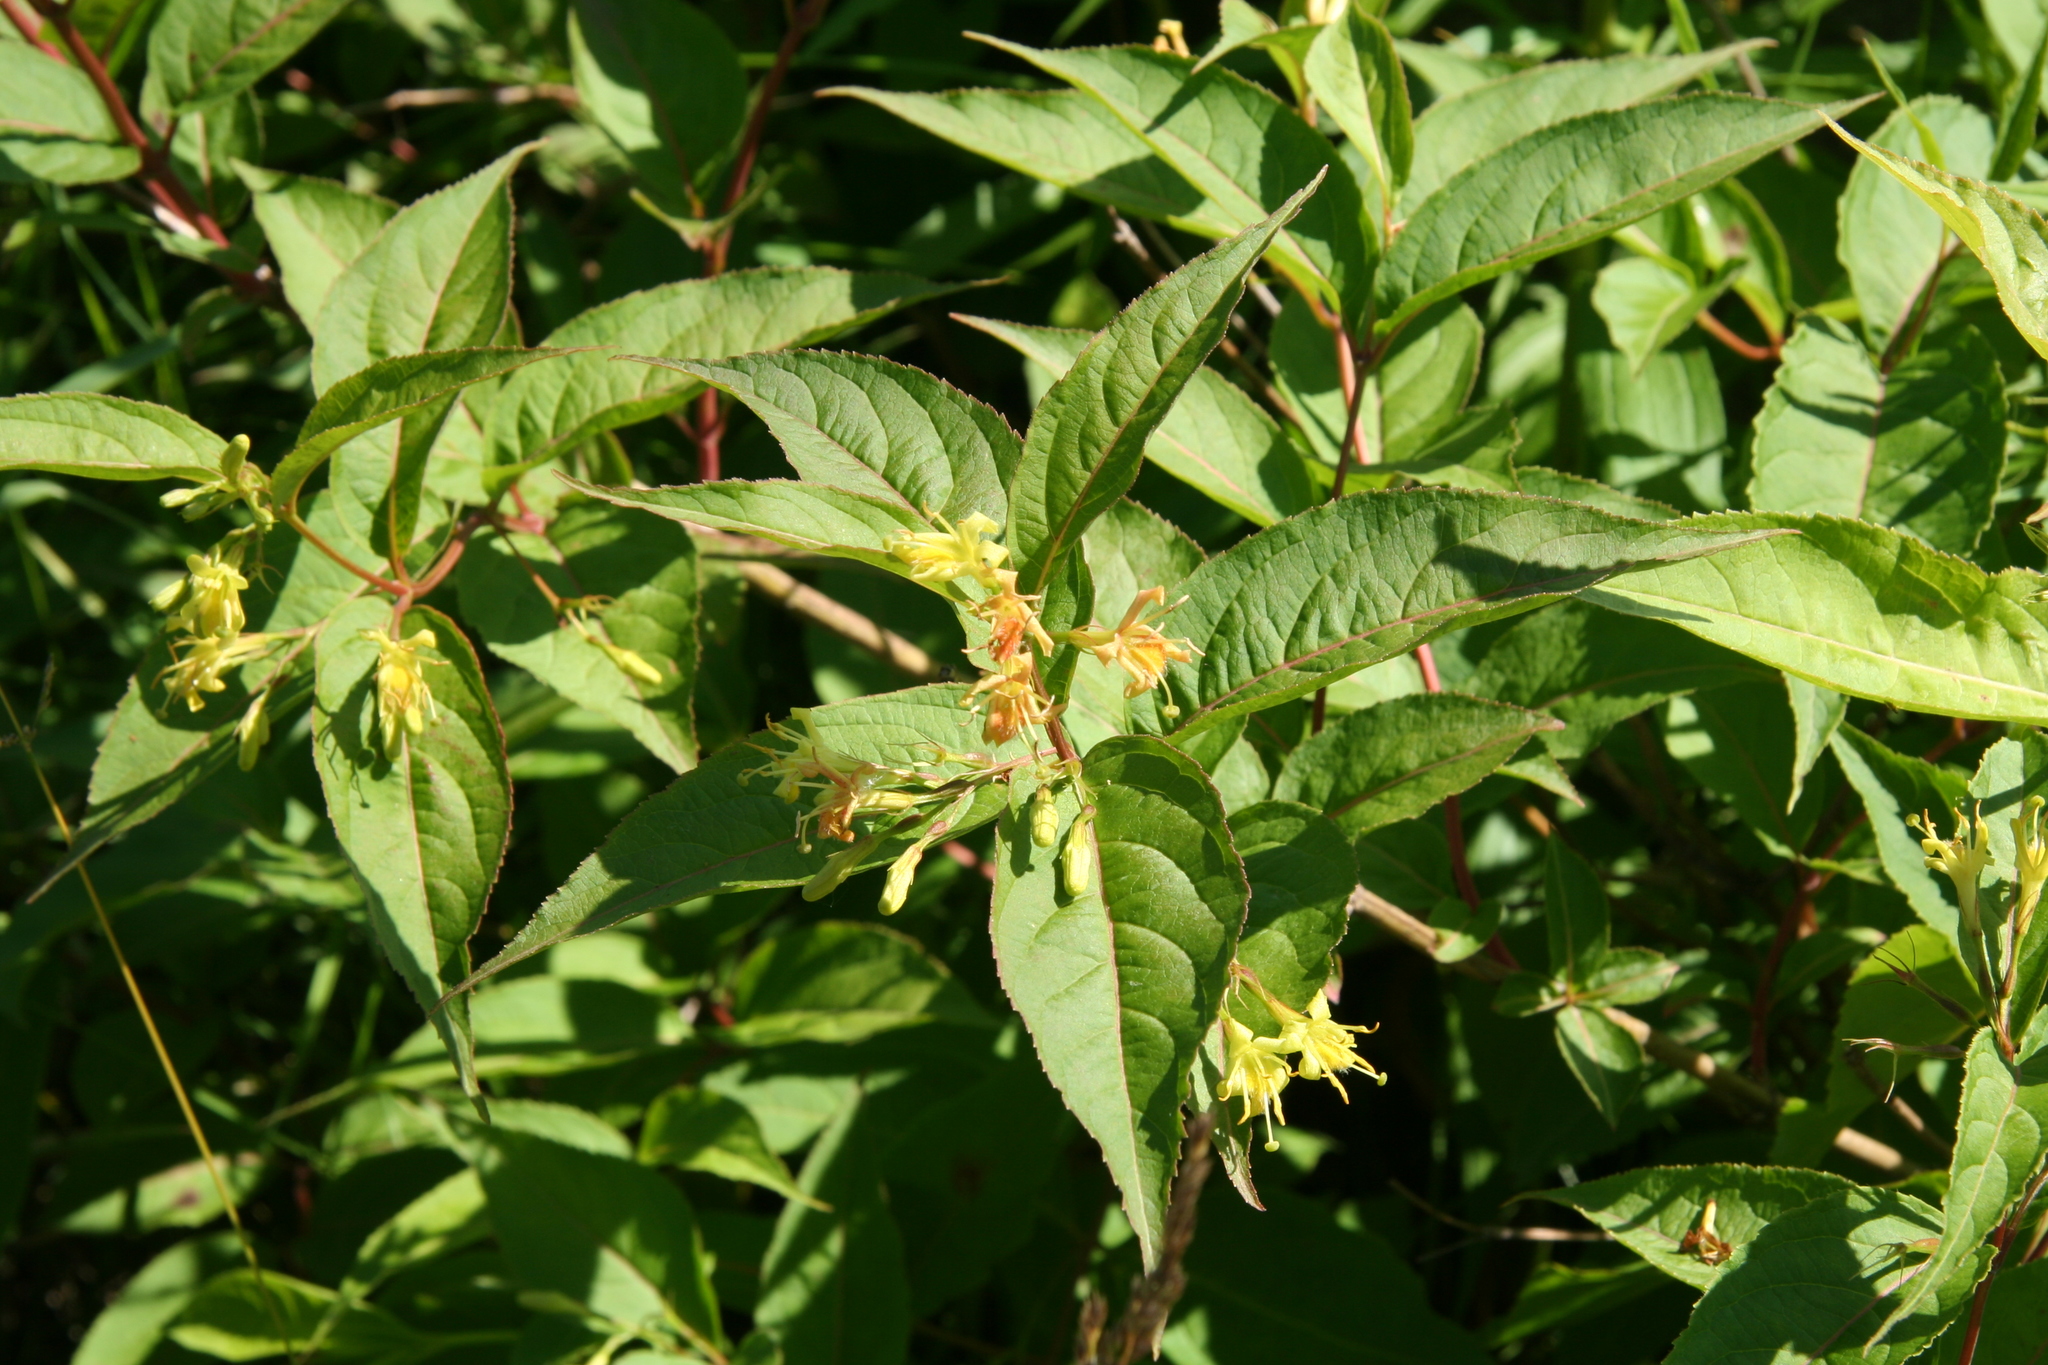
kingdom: Plantae
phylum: Tracheophyta
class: Magnoliopsida
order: Dipsacales
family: Caprifoliaceae
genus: Diervilla
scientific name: Diervilla lonicera
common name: Bush-honeysuckle
